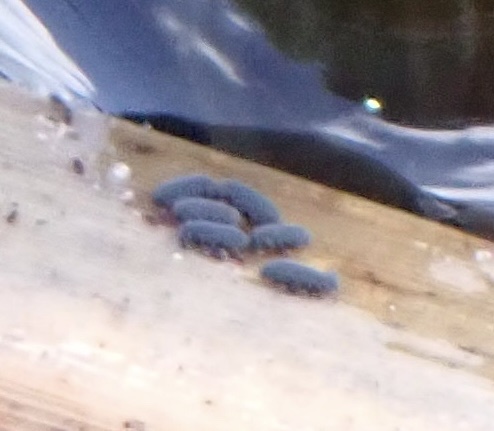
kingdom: Animalia
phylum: Arthropoda
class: Collembola
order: Poduromorpha
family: Poduridae
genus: Podura
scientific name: Podura aquatica
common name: Water springtail
